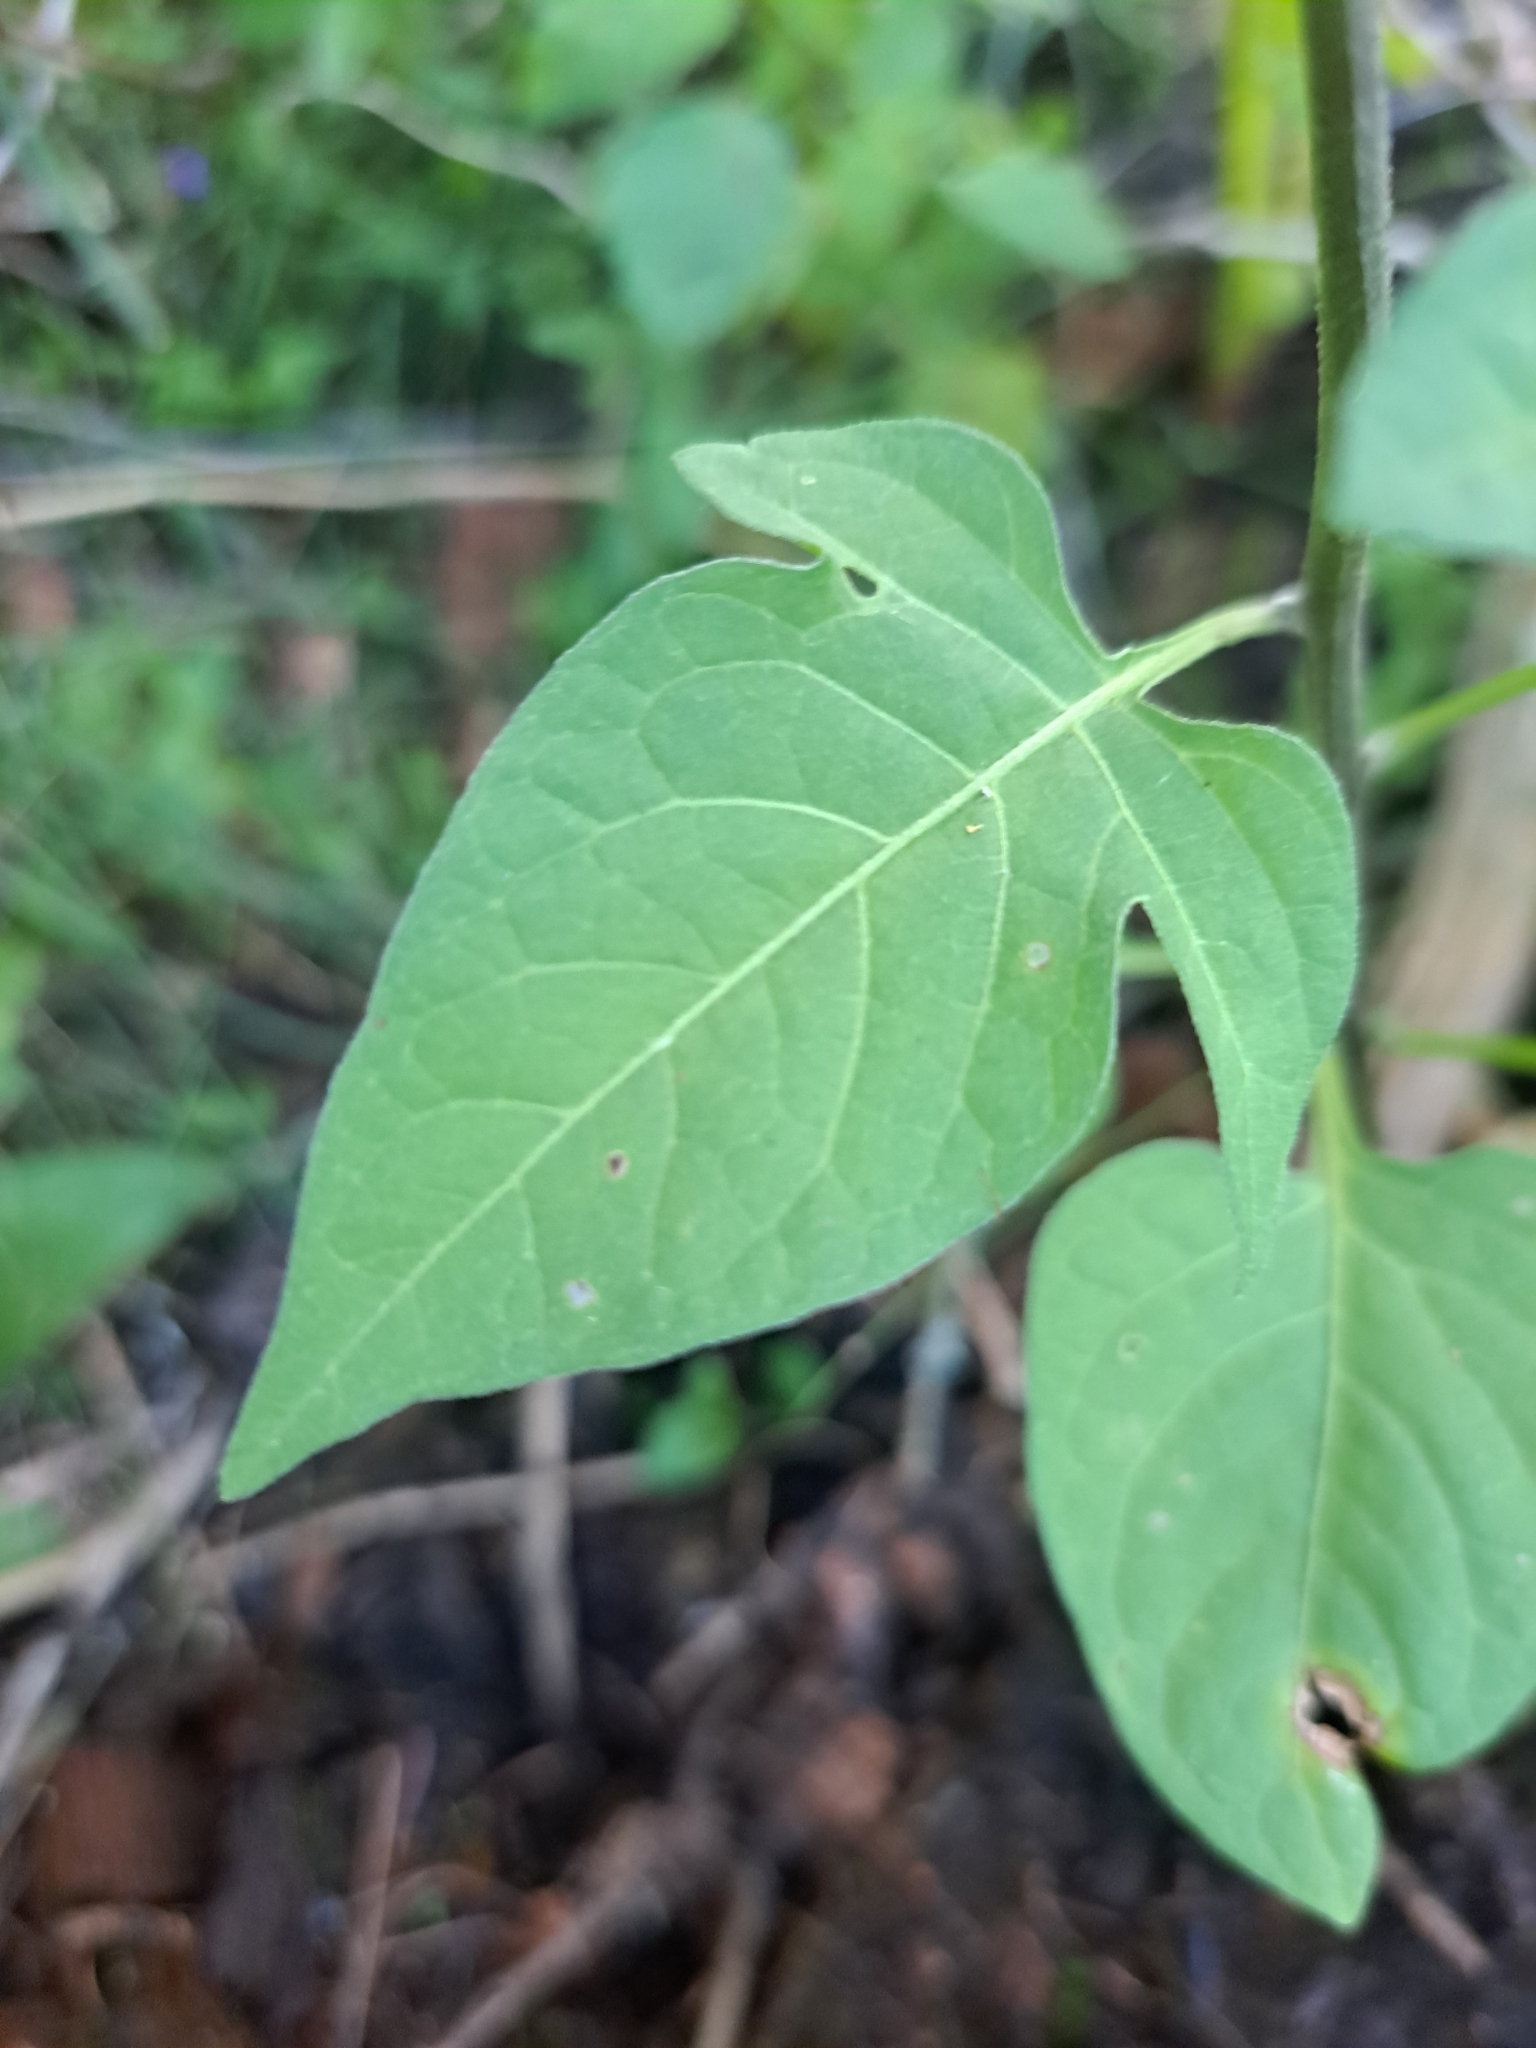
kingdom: Plantae
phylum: Tracheophyta
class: Magnoliopsida
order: Solanales
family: Solanaceae
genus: Solanum
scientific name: Solanum dulcamara
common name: Climbing nightshade
